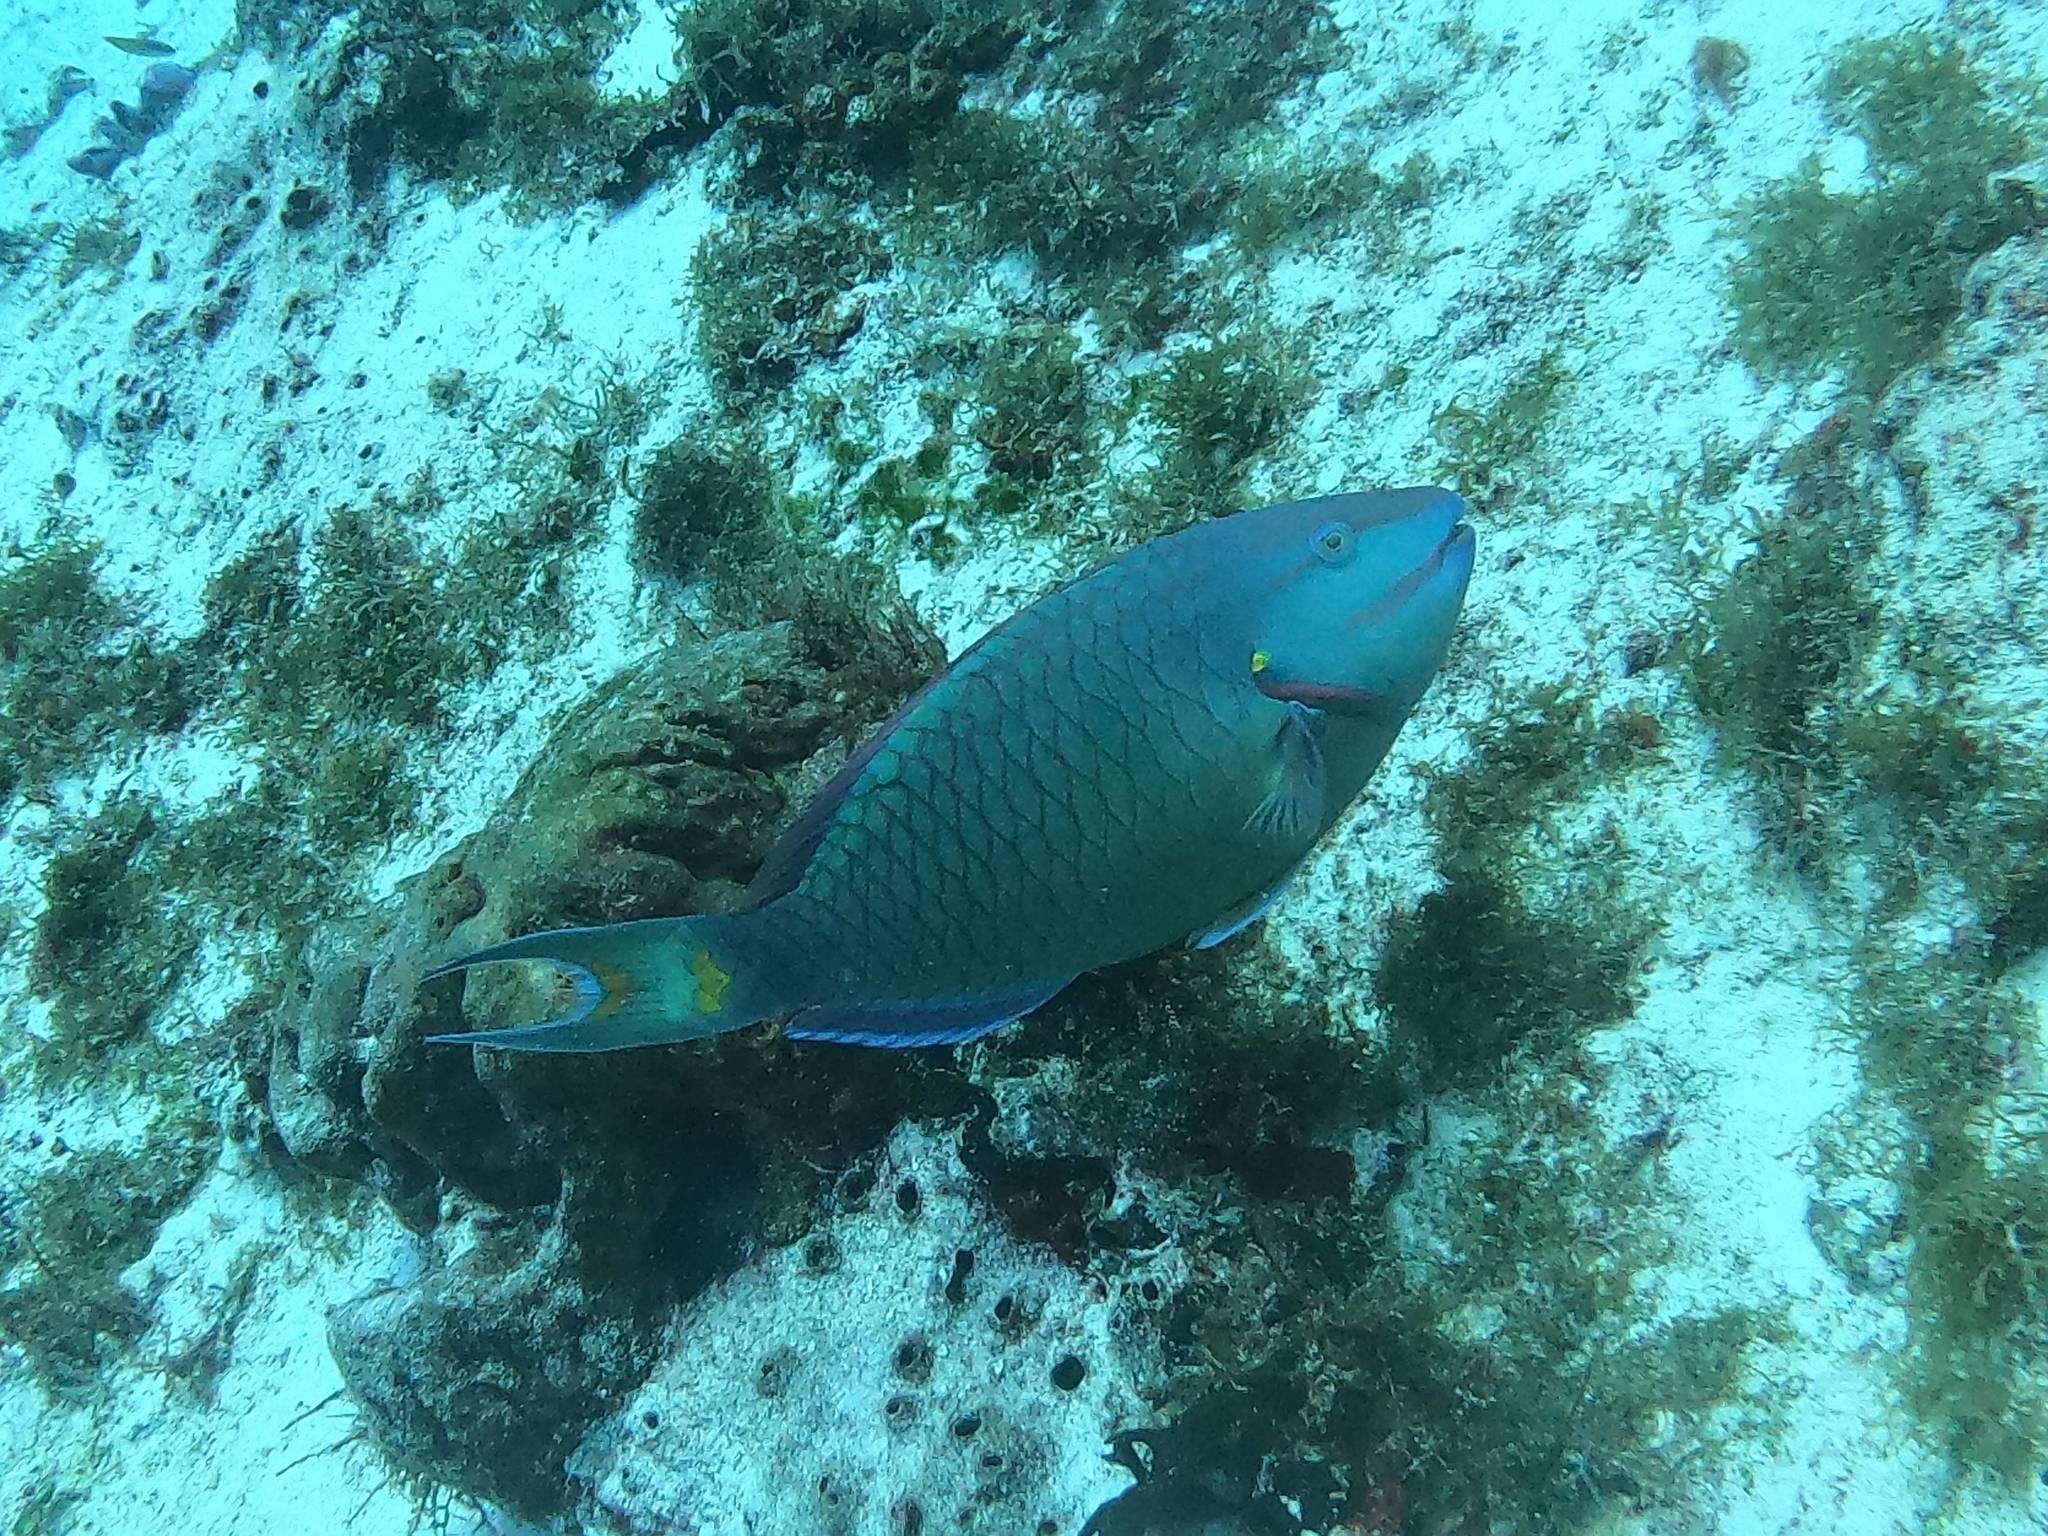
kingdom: Animalia
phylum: Chordata
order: Perciformes
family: Scaridae
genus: Sparisoma
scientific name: Sparisoma viride
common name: Stoplight parrotfish
